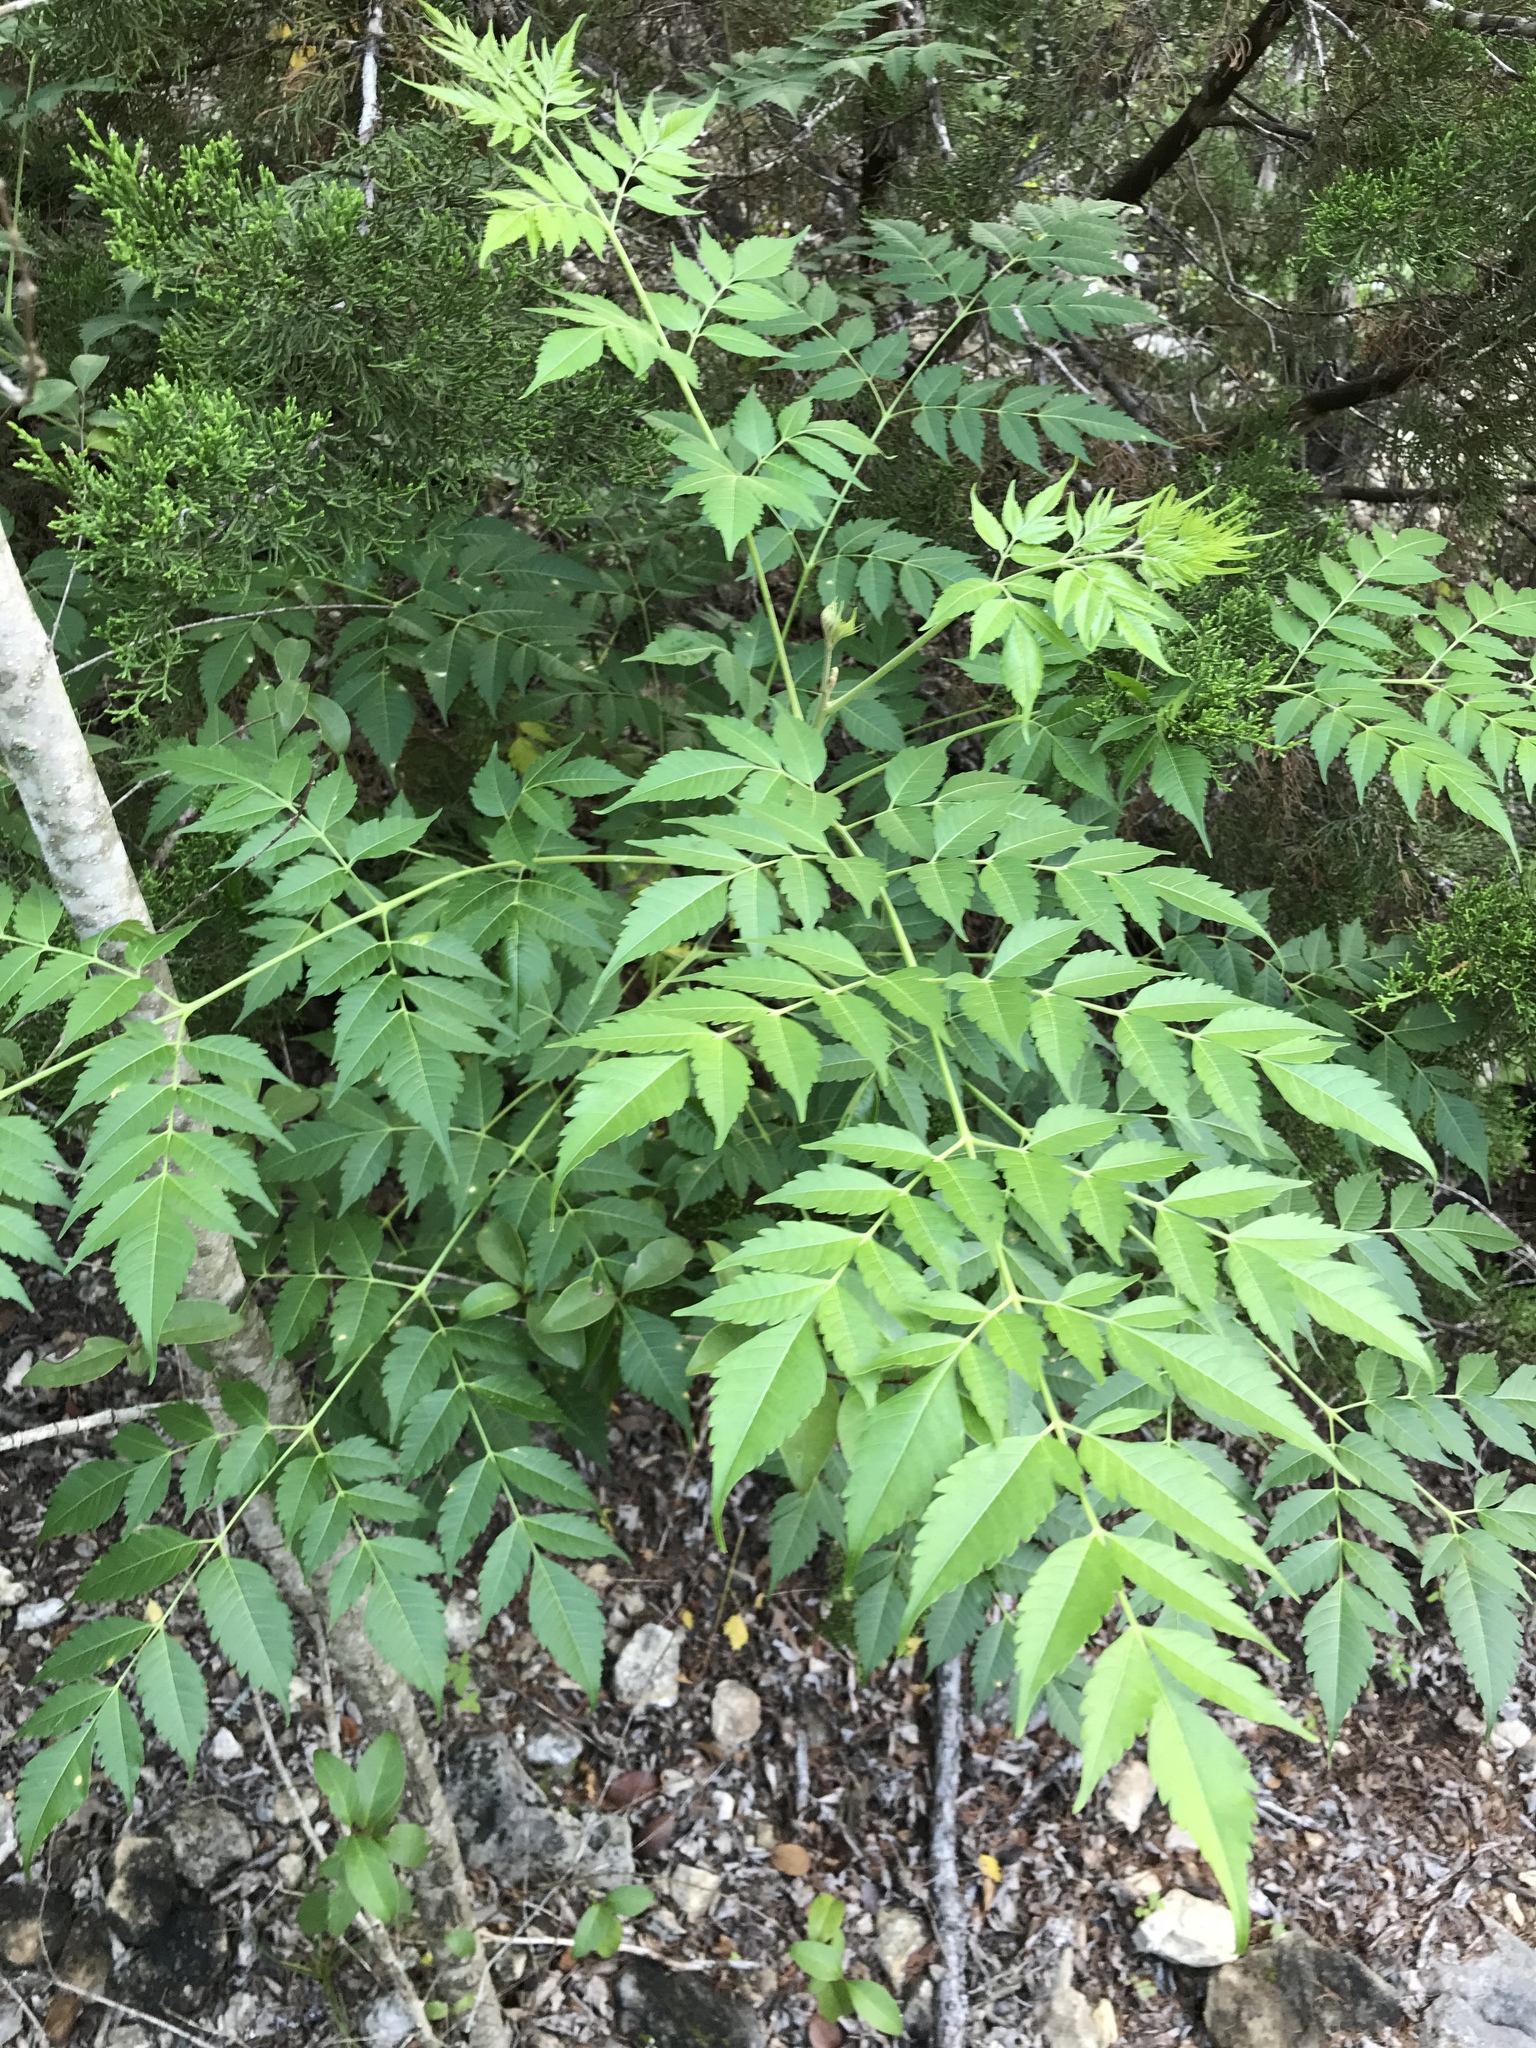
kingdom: Plantae
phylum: Tracheophyta
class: Magnoliopsida
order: Sapindales
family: Meliaceae
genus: Melia
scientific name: Melia azedarach
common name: Chinaberrytree
